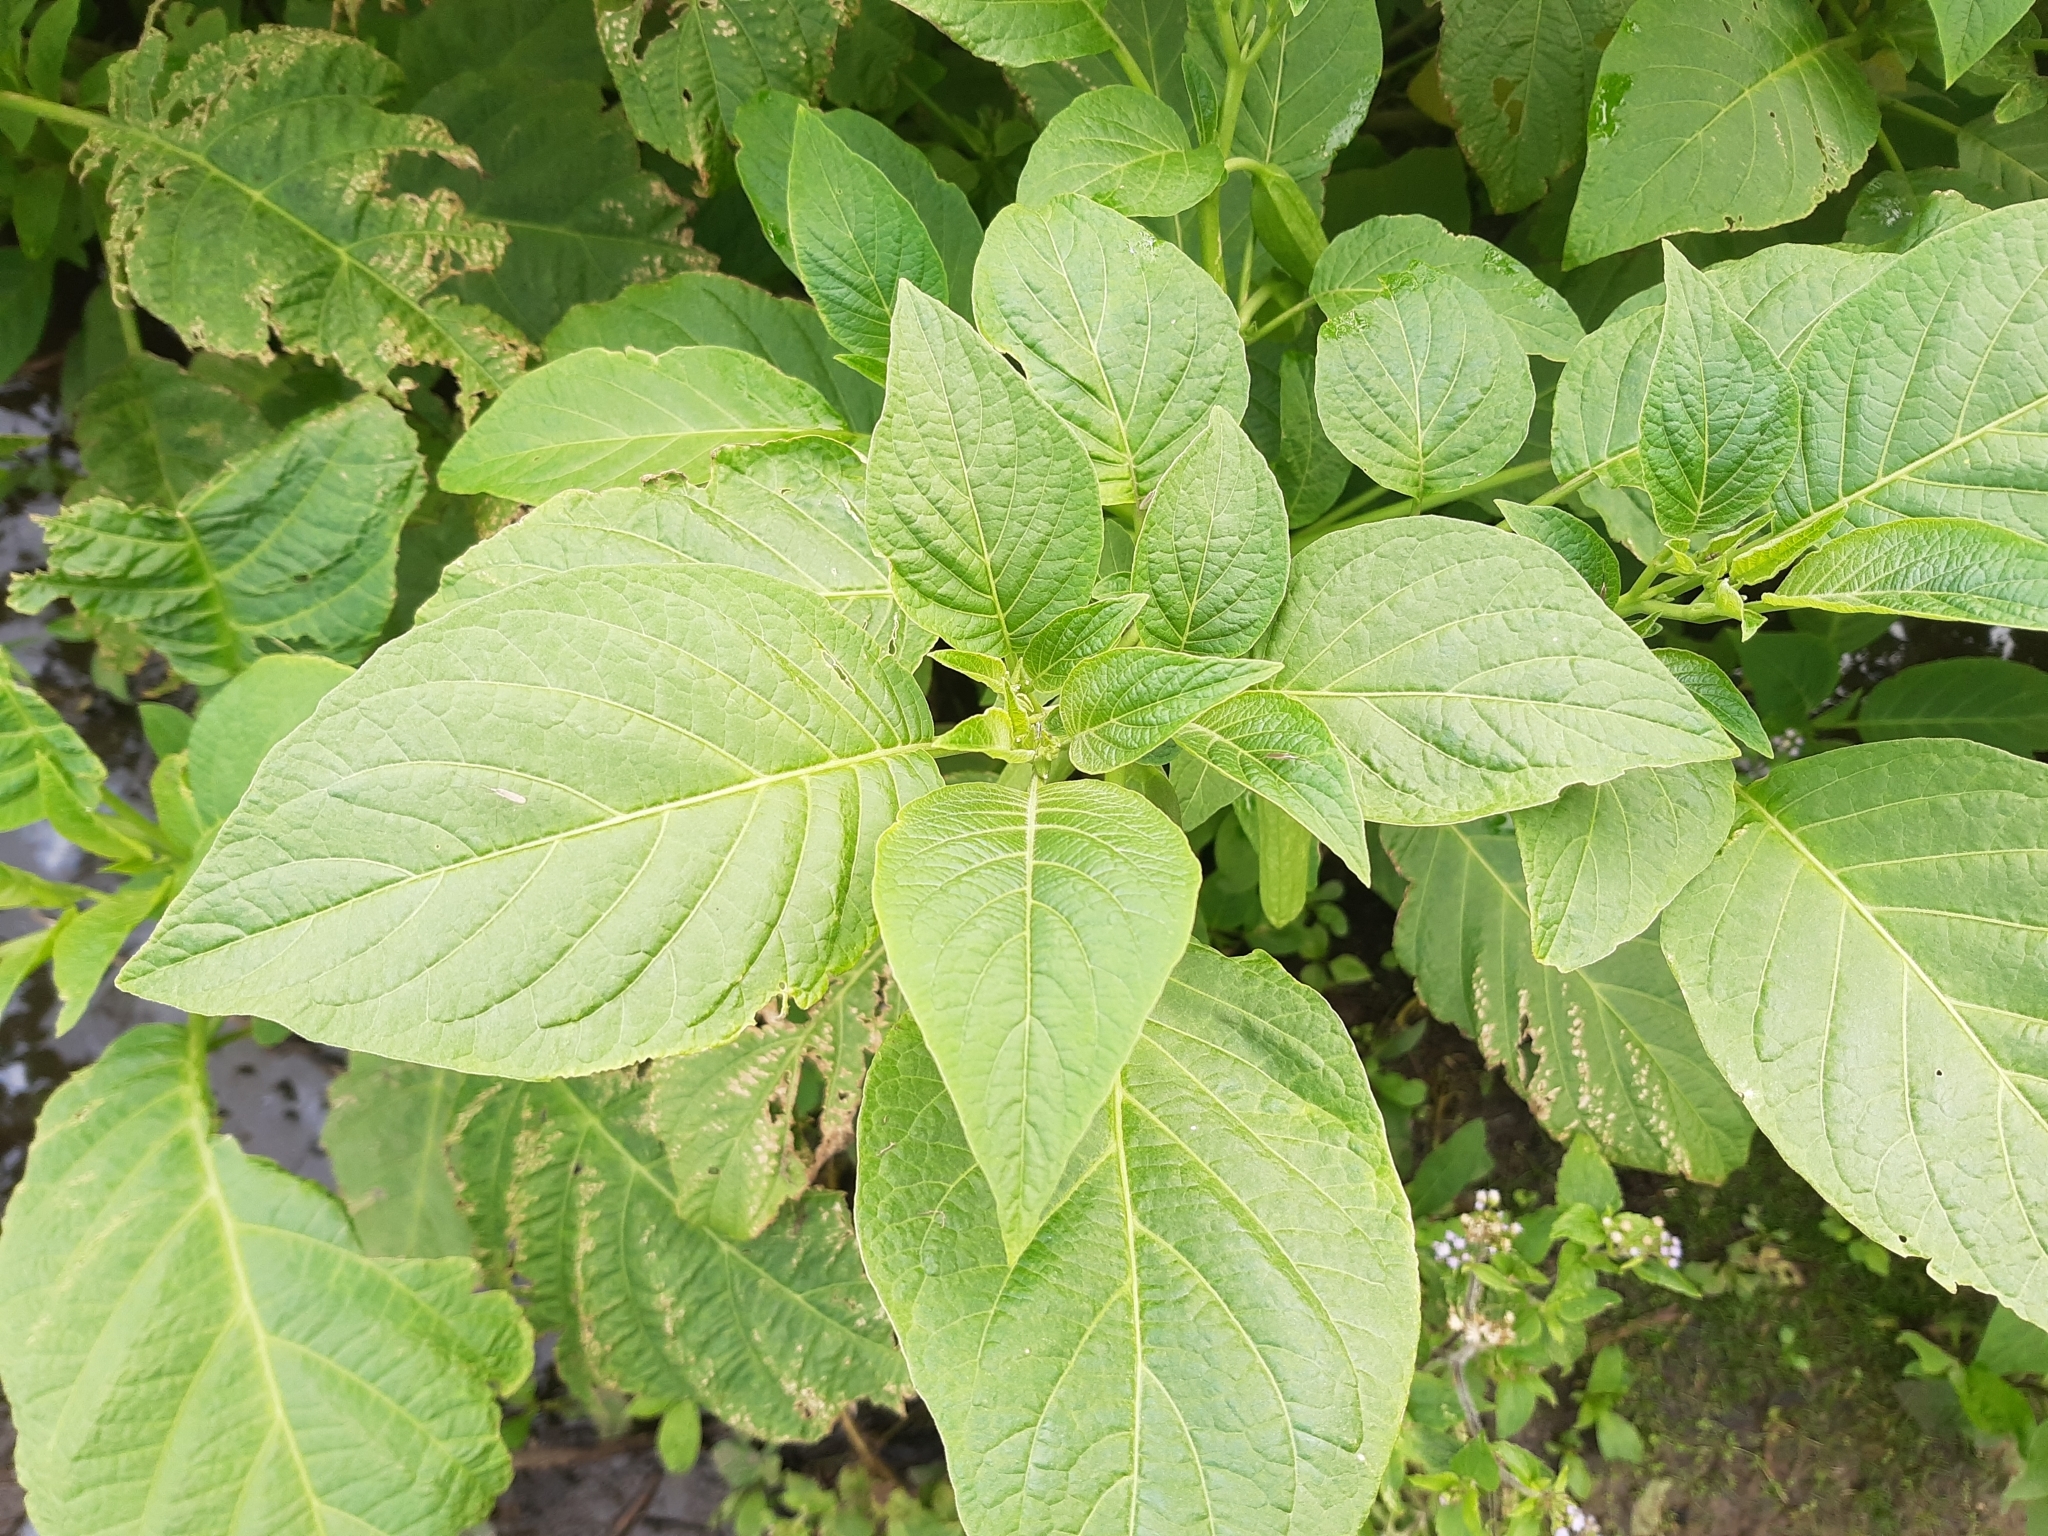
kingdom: Plantae
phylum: Tracheophyta
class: Magnoliopsida
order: Solanales
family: Solanaceae
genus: Brugmansia
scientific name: Brugmansia suaveolens
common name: Angel's tears
